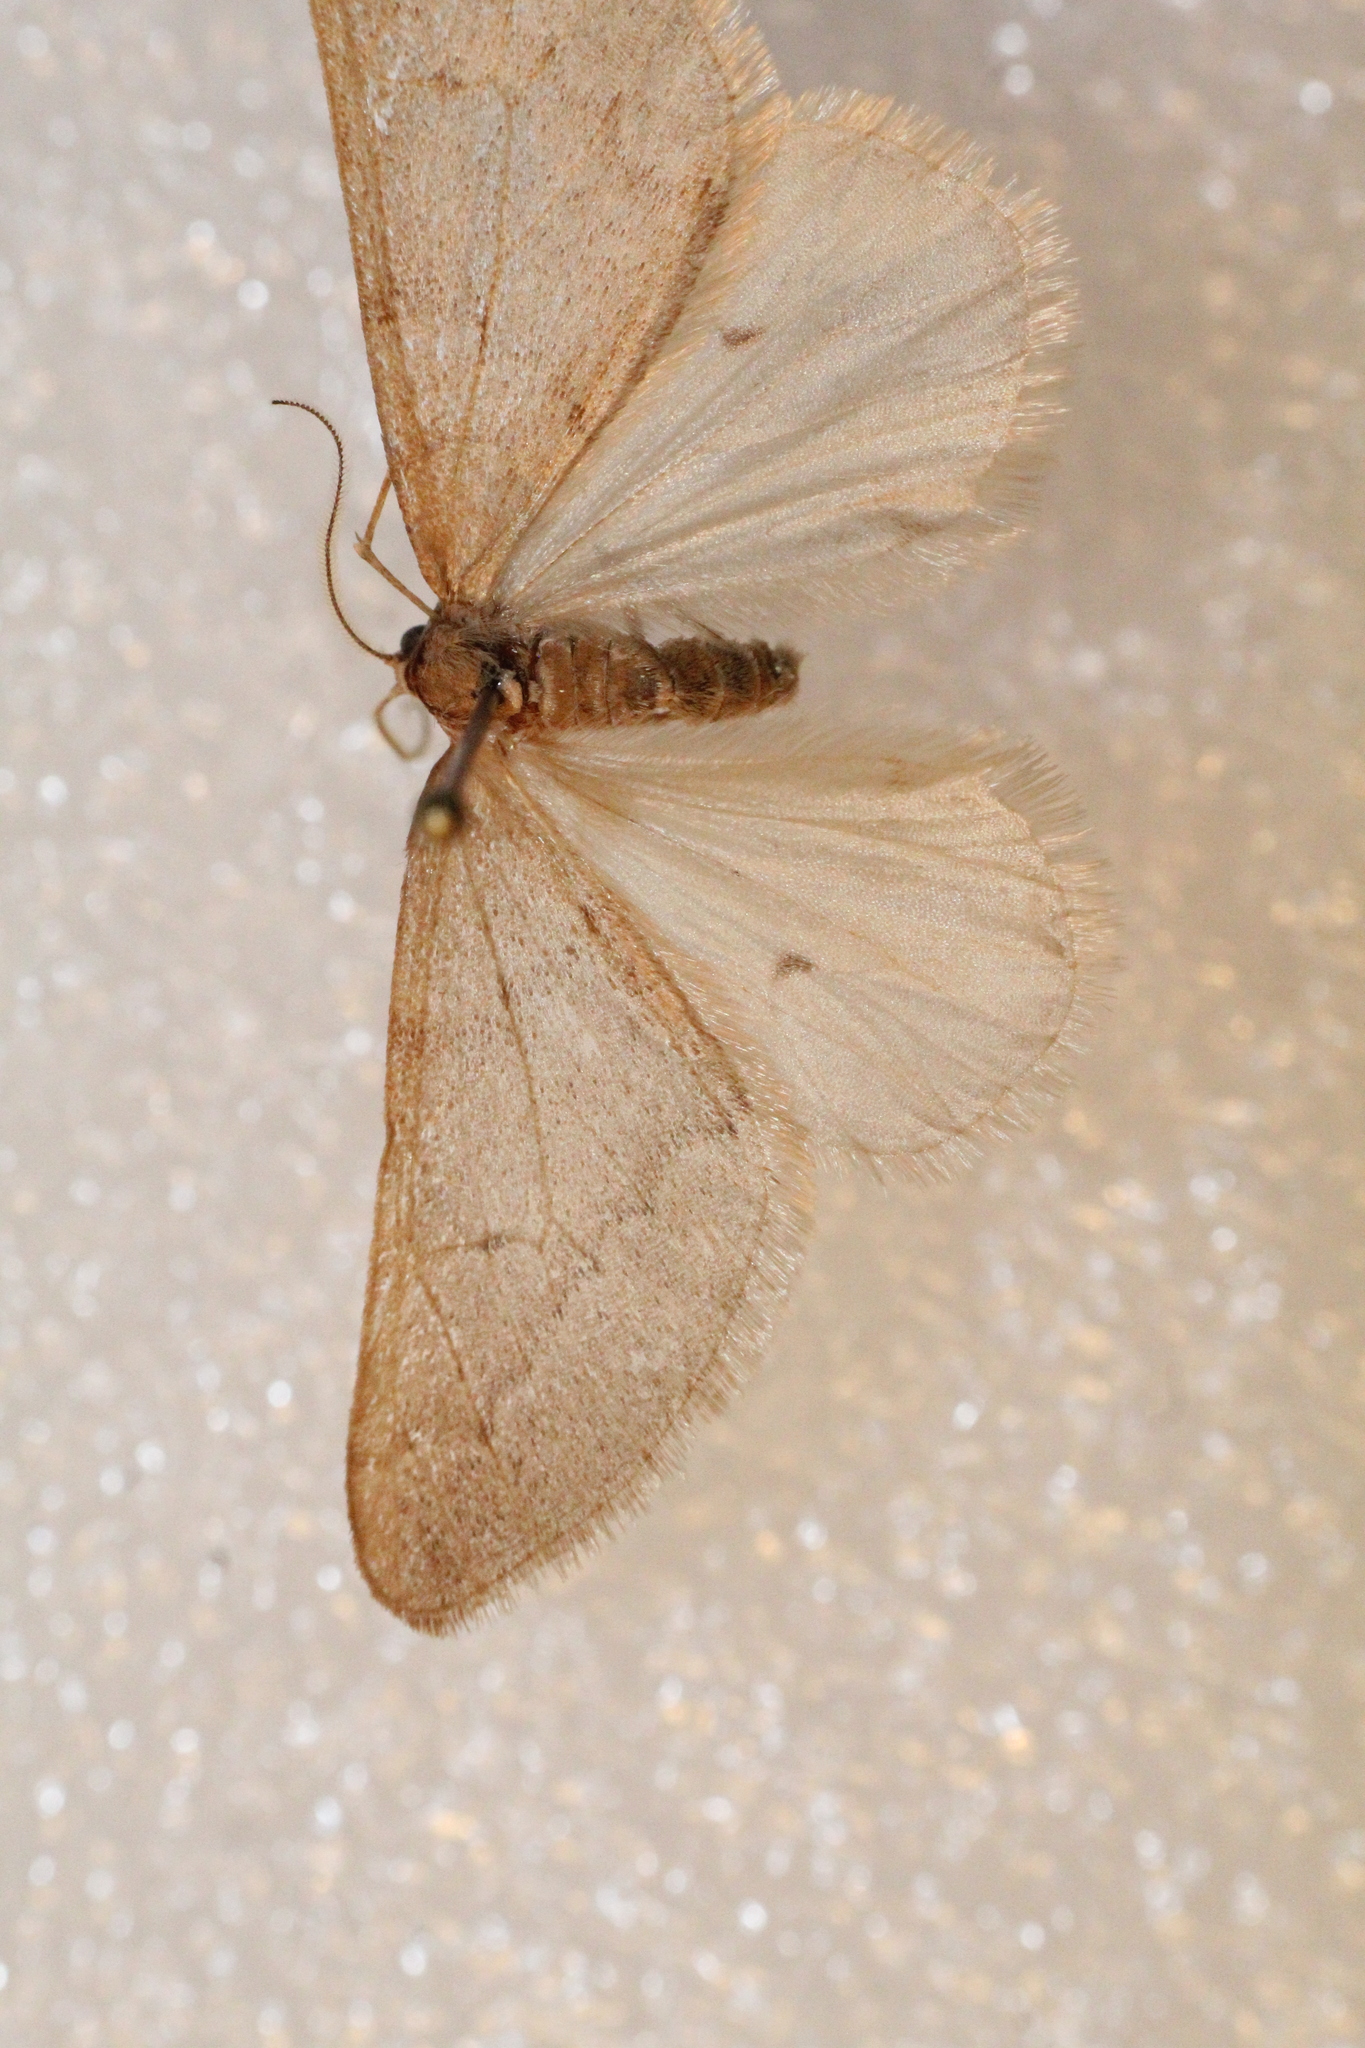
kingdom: Animalia
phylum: Arthropoda
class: Insecta
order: Lepidoptera
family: Geometridae
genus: Alsophila
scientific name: Alsophila aceraria
